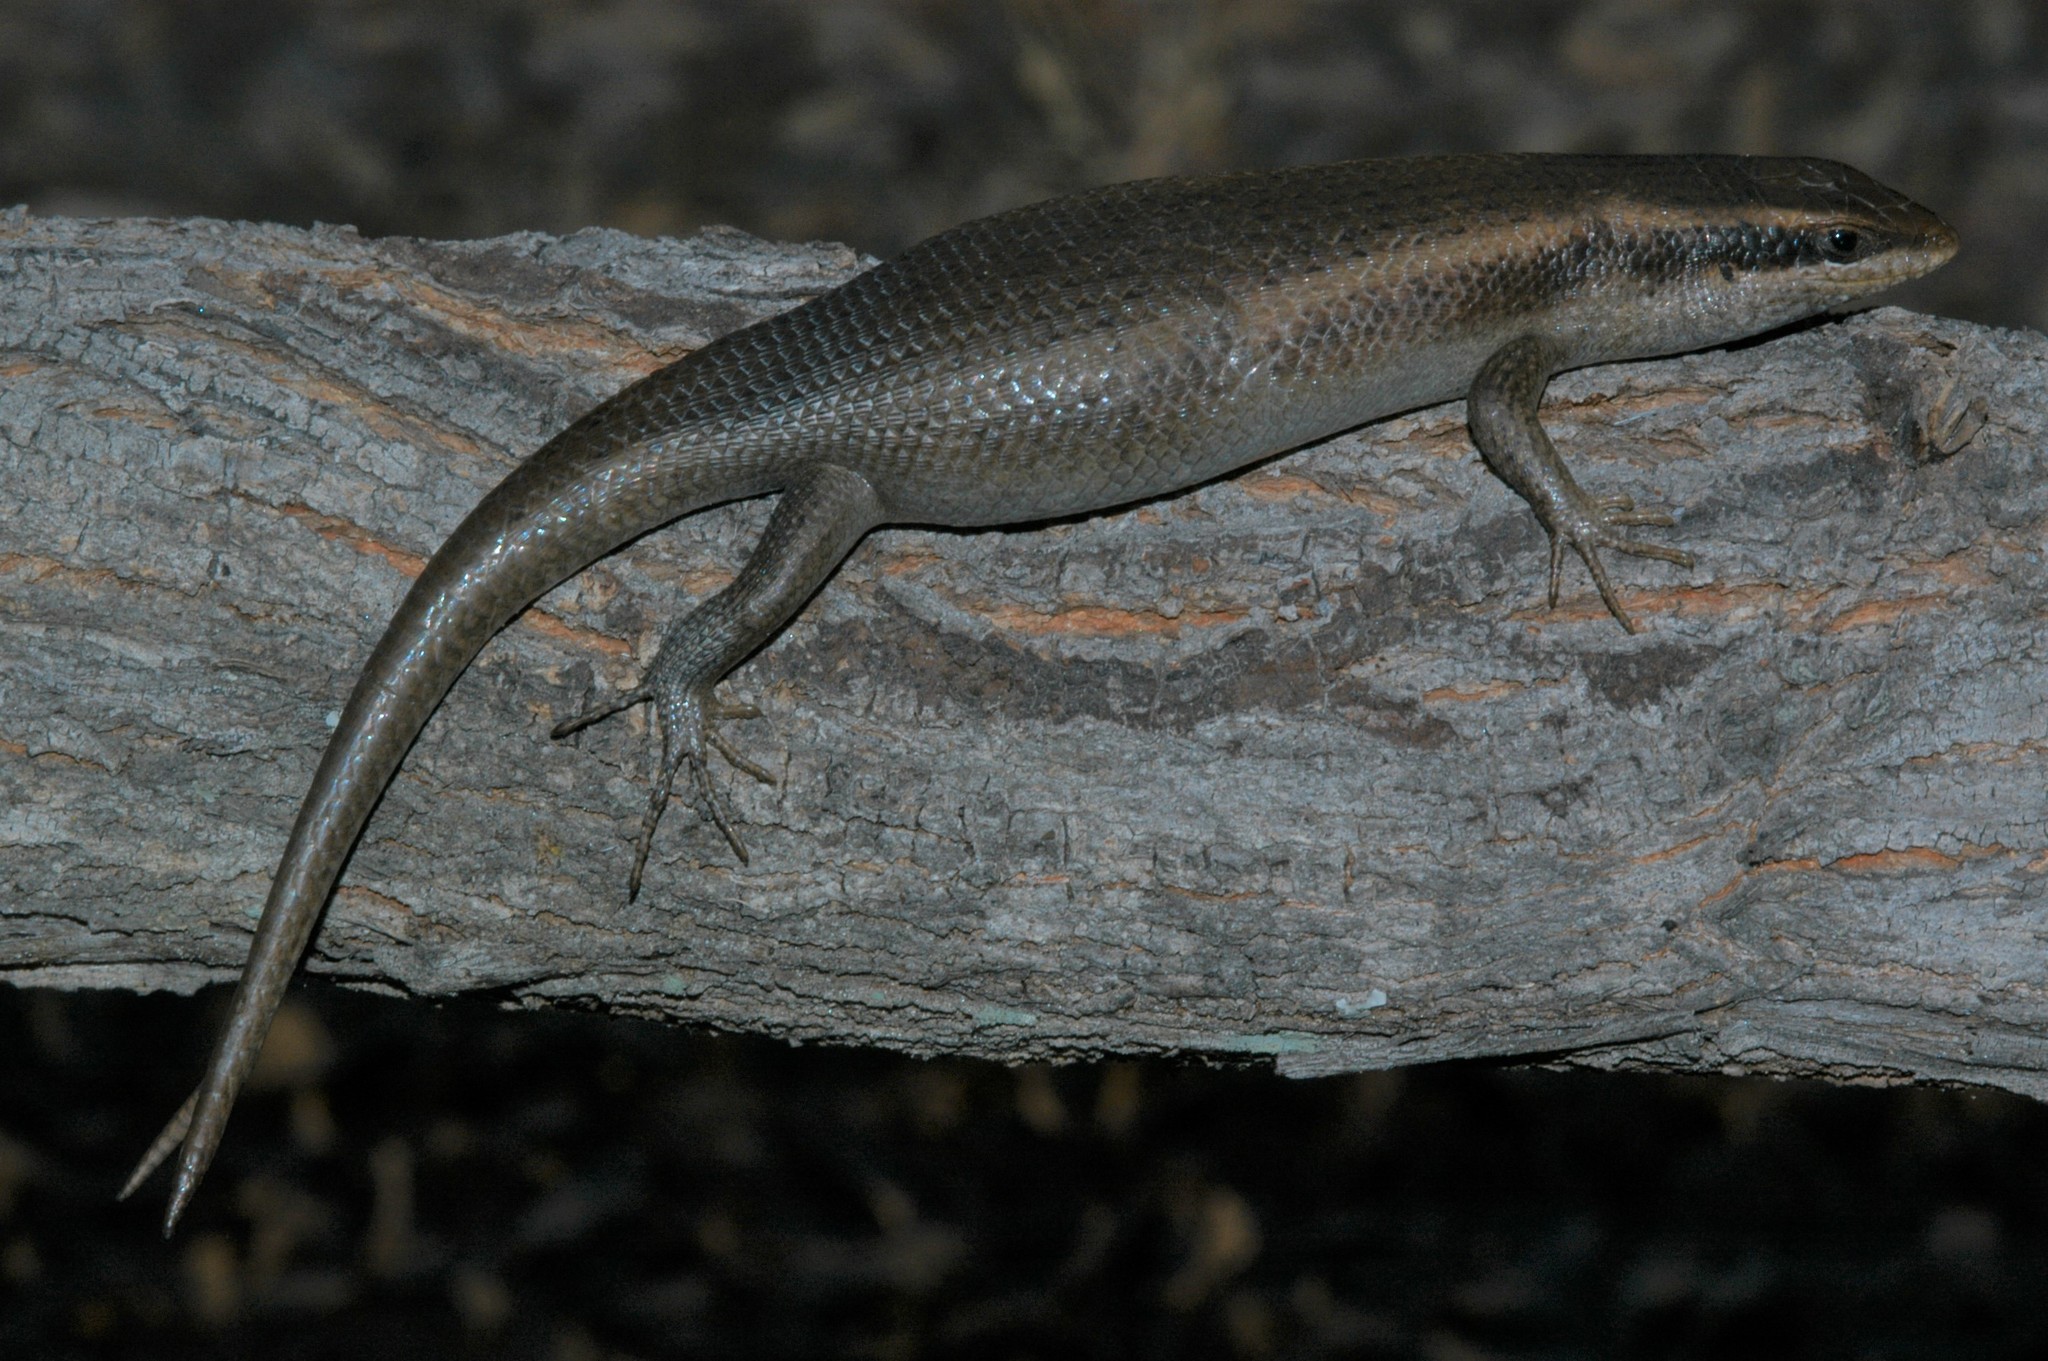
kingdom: Animalia
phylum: Chordata
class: Squamata
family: Scincidae
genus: Trachylepis
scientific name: Trachylepis wahlbergii
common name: Wahlberg’s striped skink
